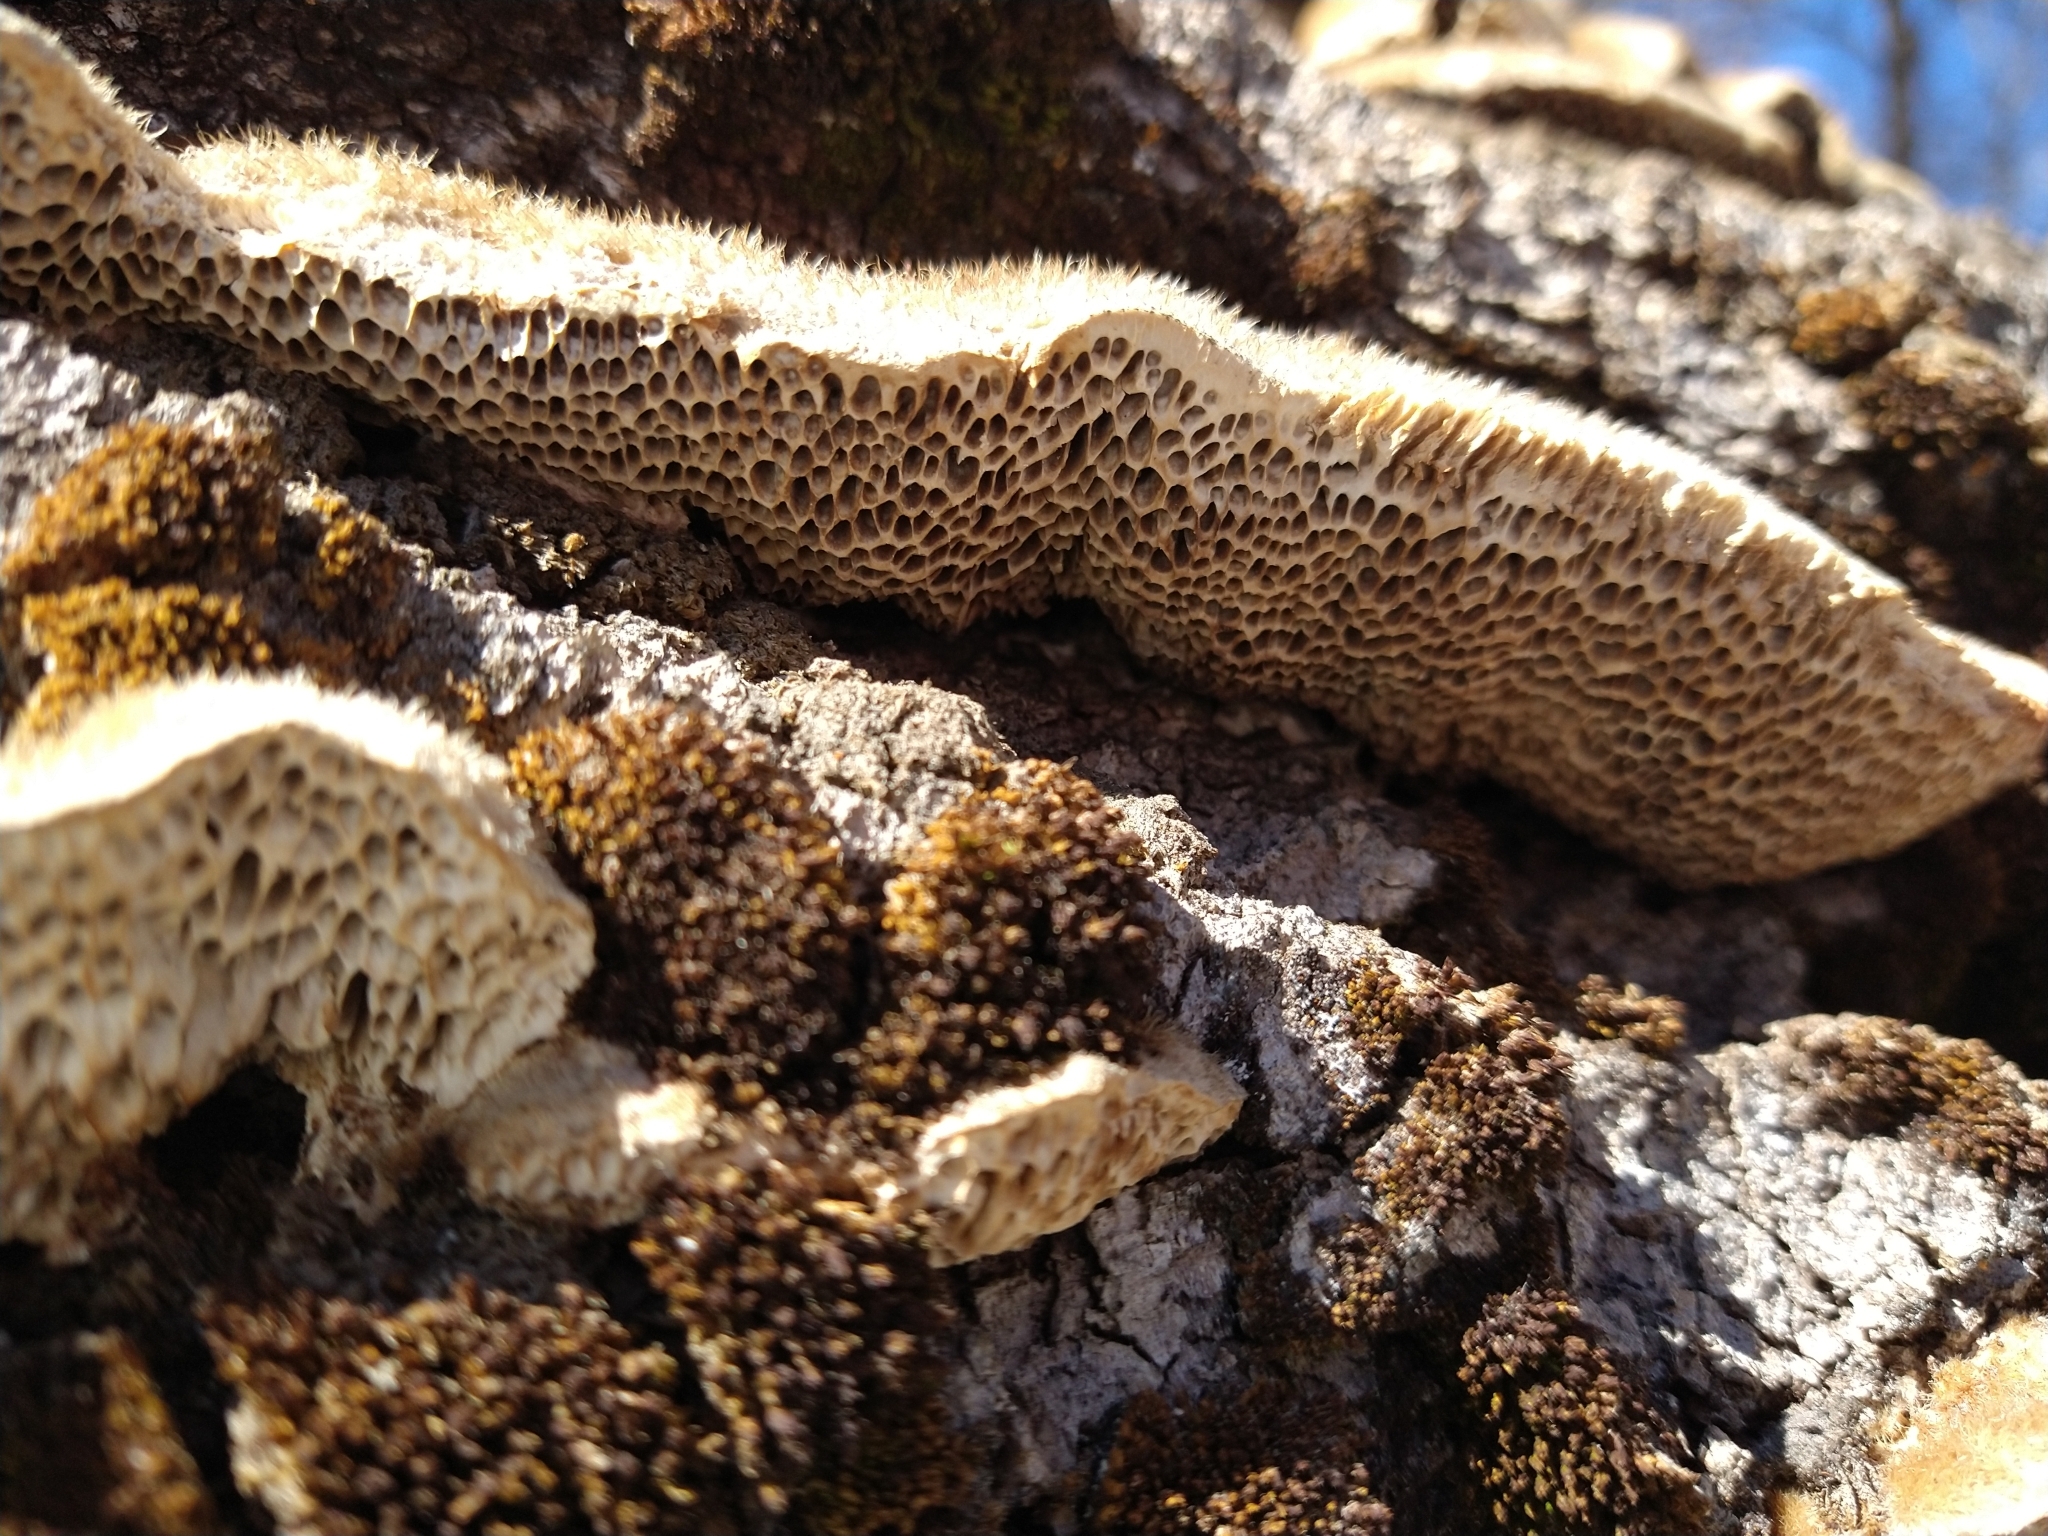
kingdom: Fungi
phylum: Basidiomycota
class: Agaricomycetes
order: Polyporales
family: Polyporaceae
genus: Coriolopsis
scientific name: Coriolopsis gallica
